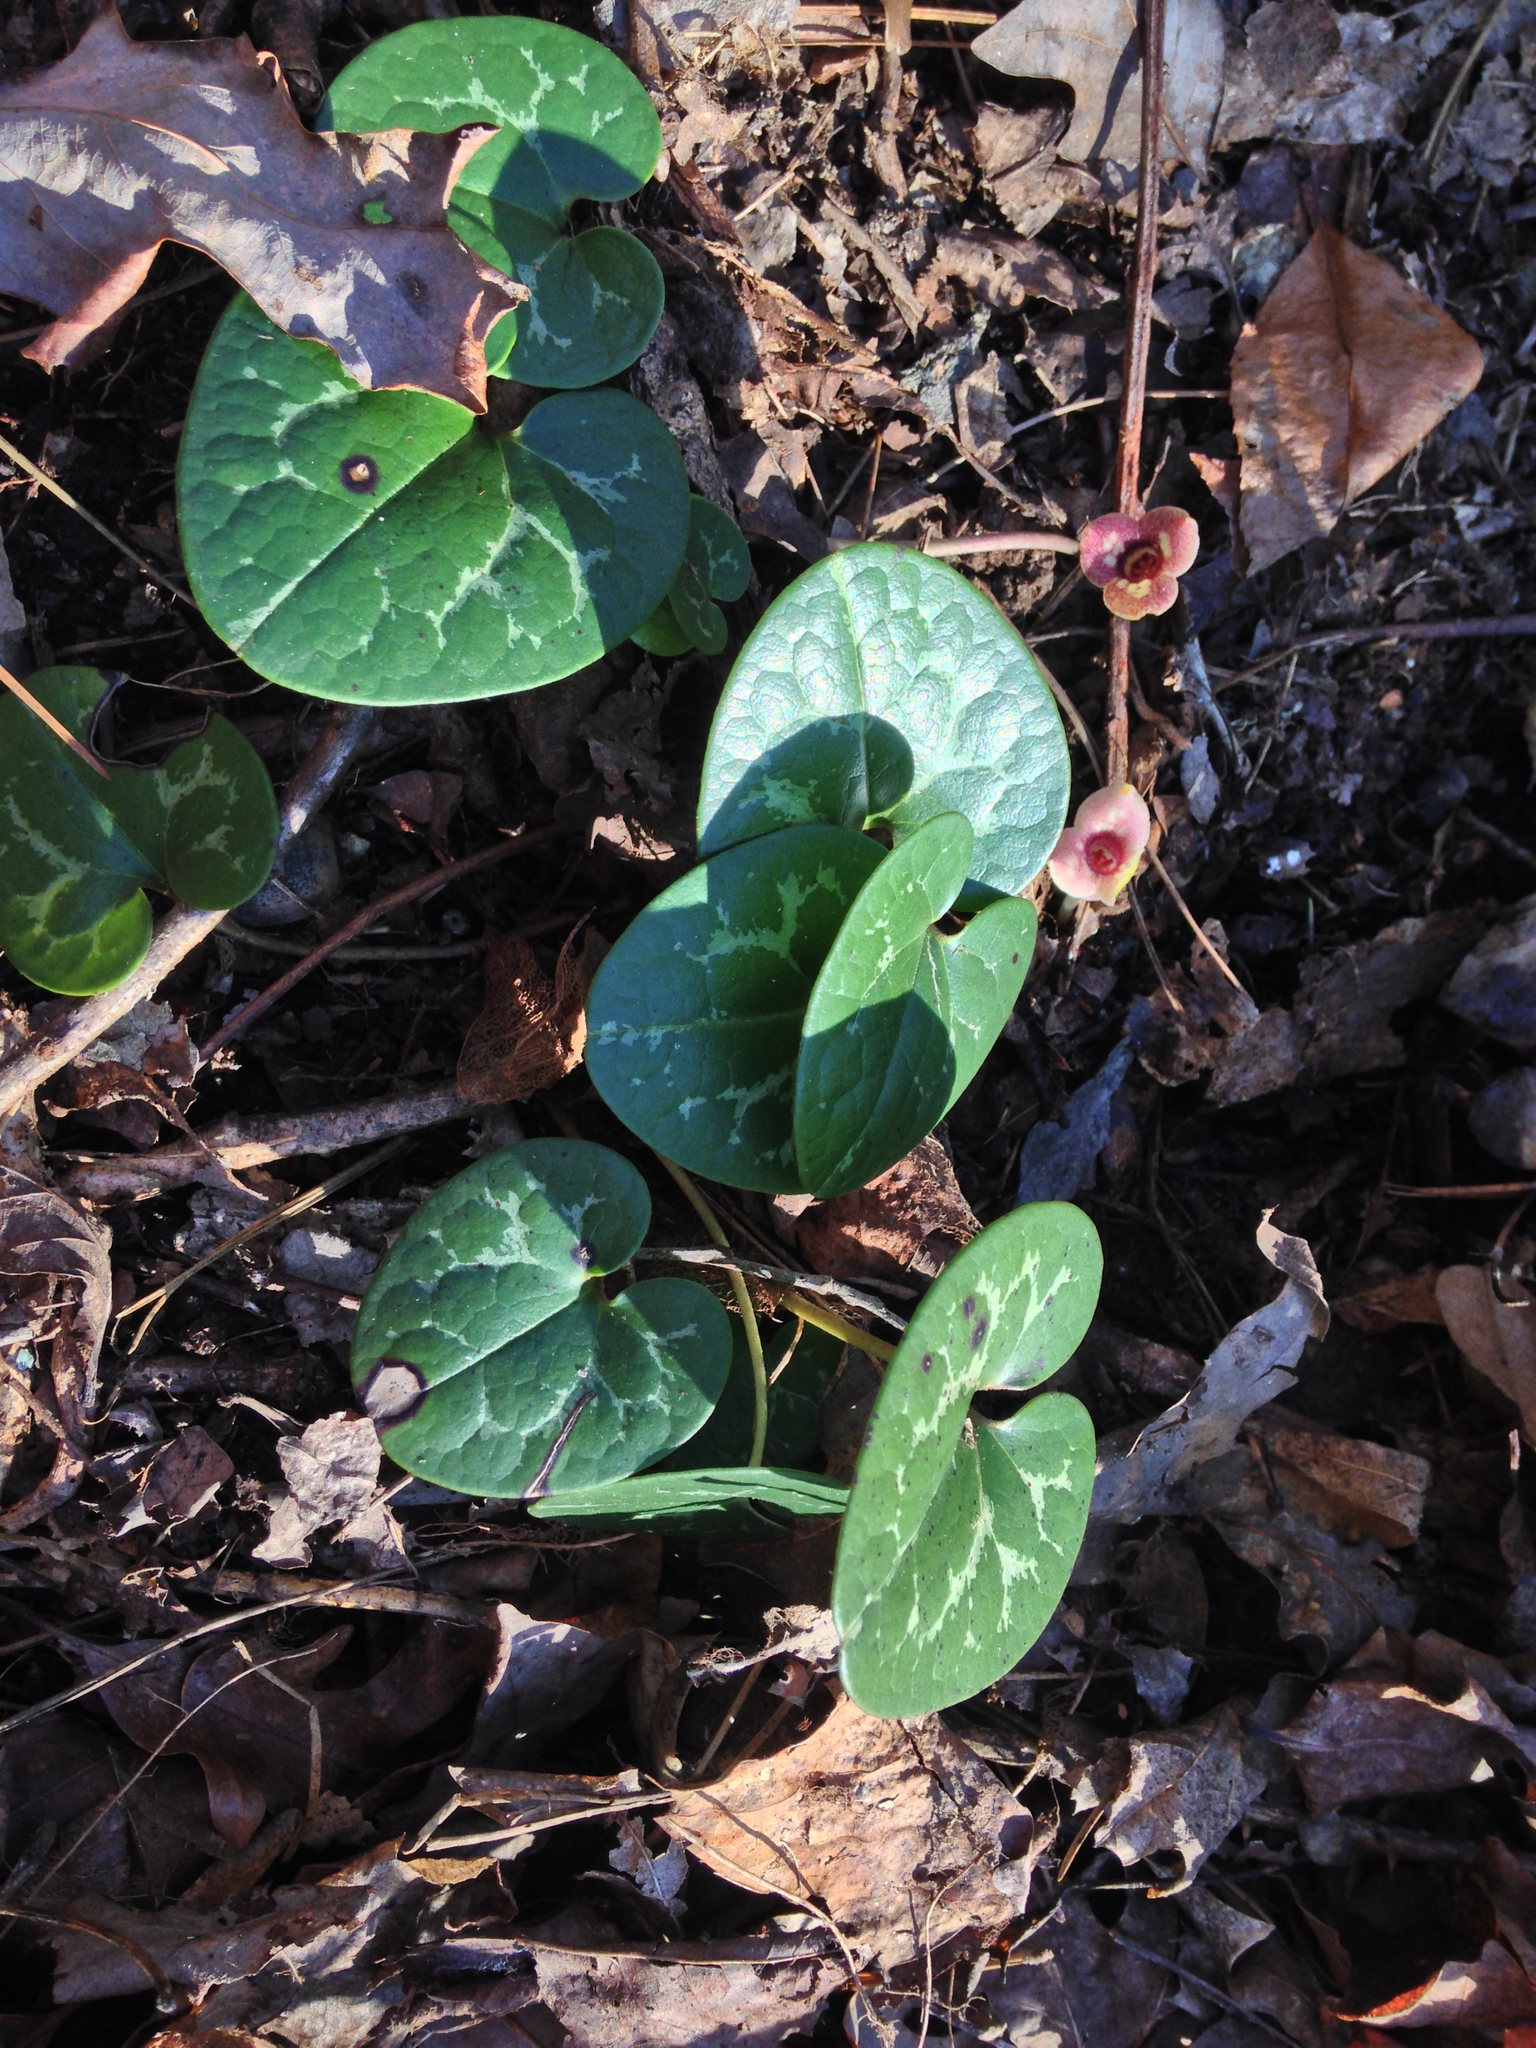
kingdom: Plantae
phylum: Tracheophyta
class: Magnoliopsida
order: Piperales
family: Aristolochiaceae
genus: Hexastylis
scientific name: Hexastylis naniflora
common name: Dwarf-flower heartleaf
